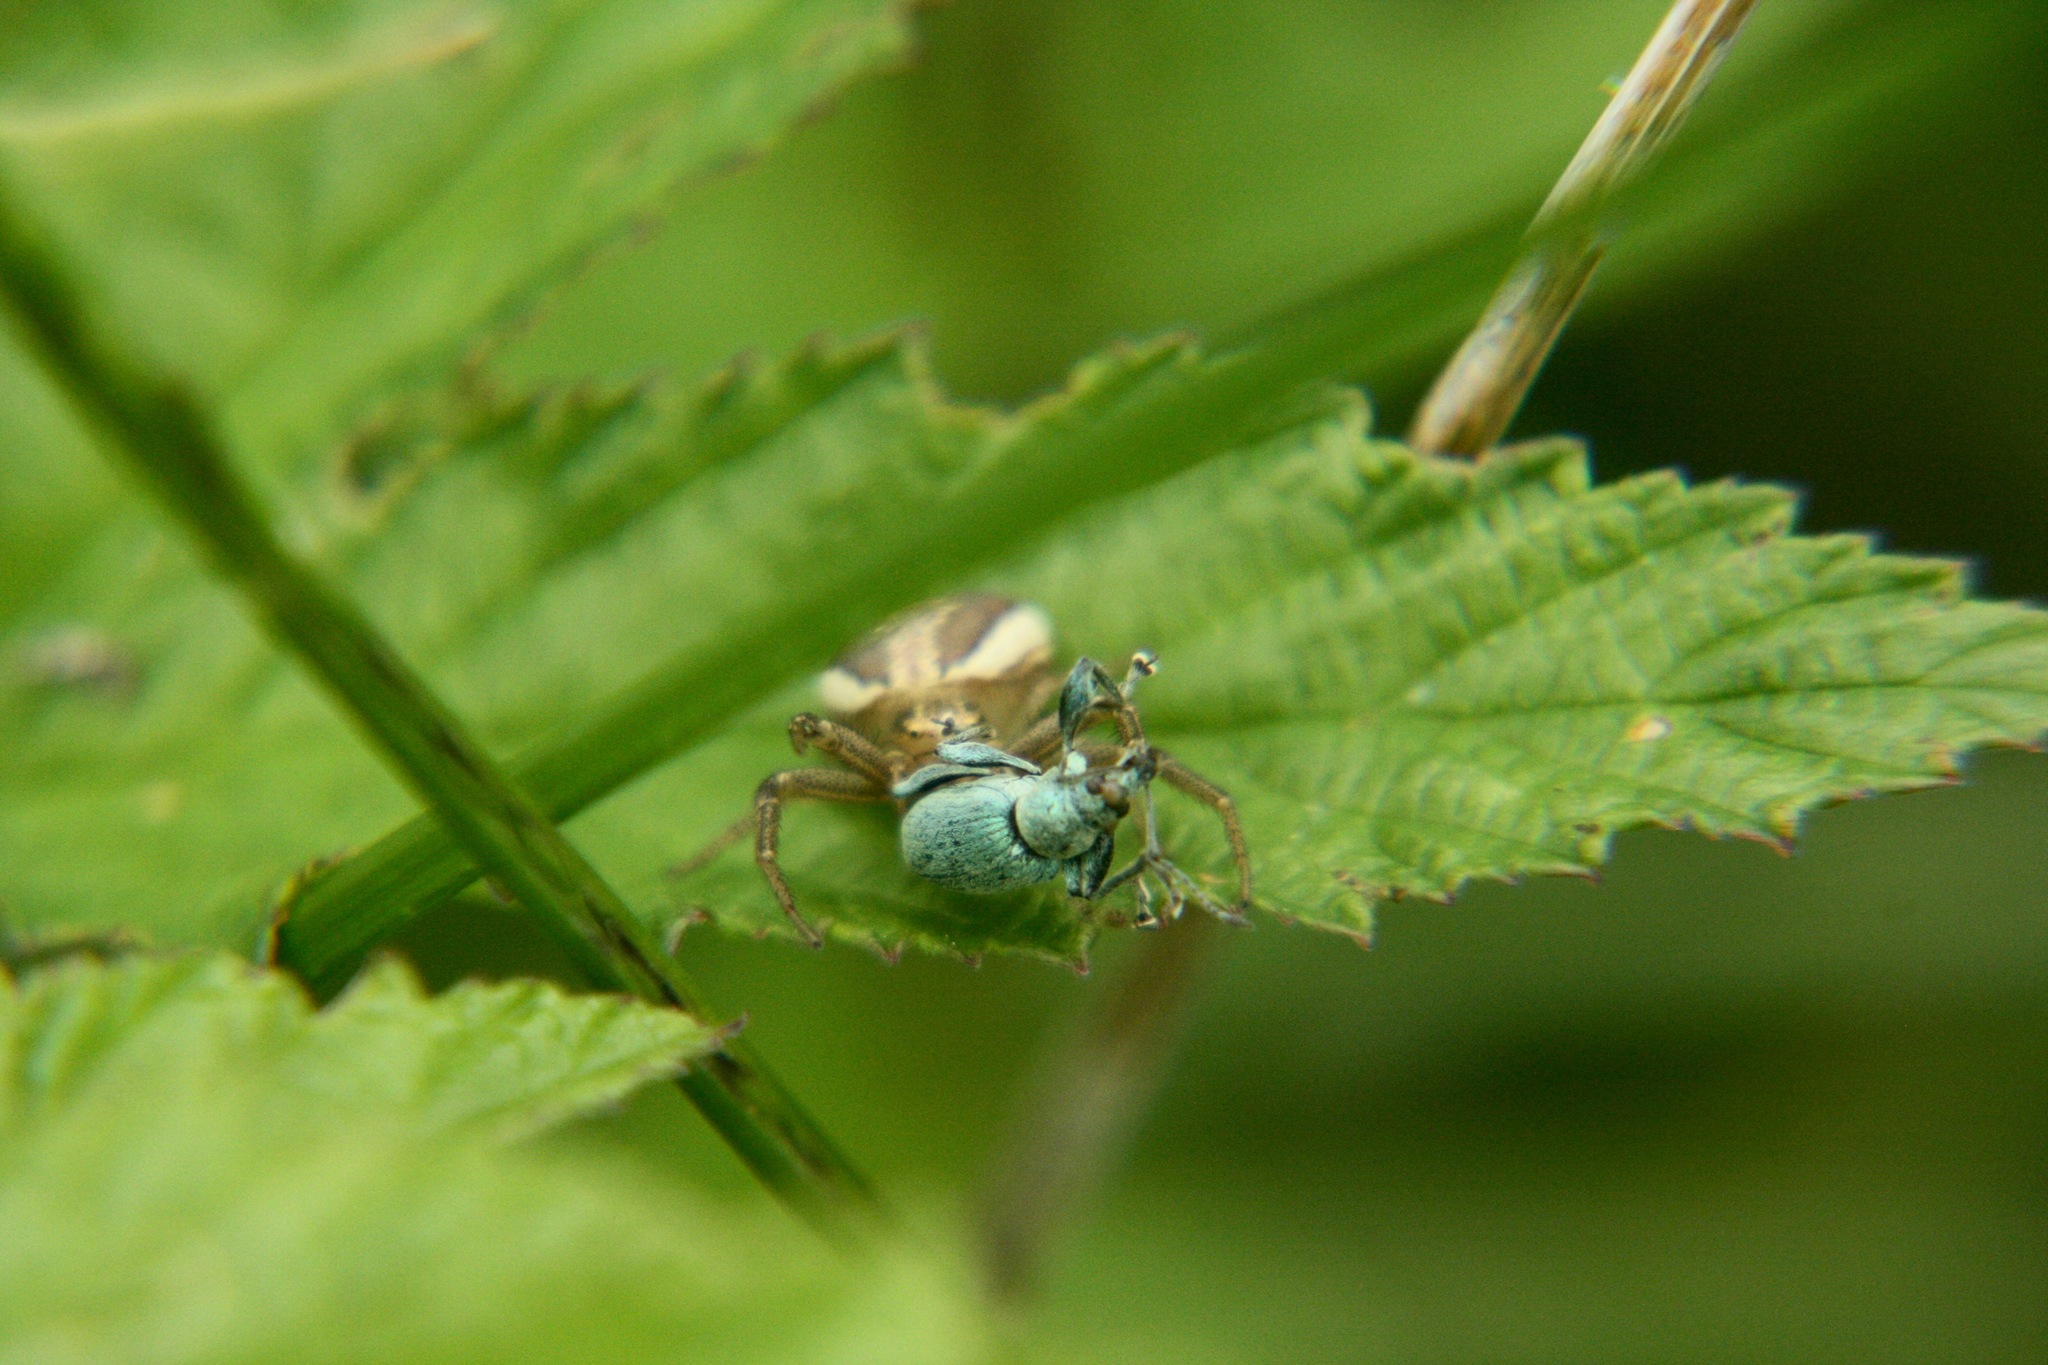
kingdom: Animalia
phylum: Arthropoda
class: Arachnida
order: Araneae
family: Thomisidae
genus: Xysticus
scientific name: Xysticus ulmi
